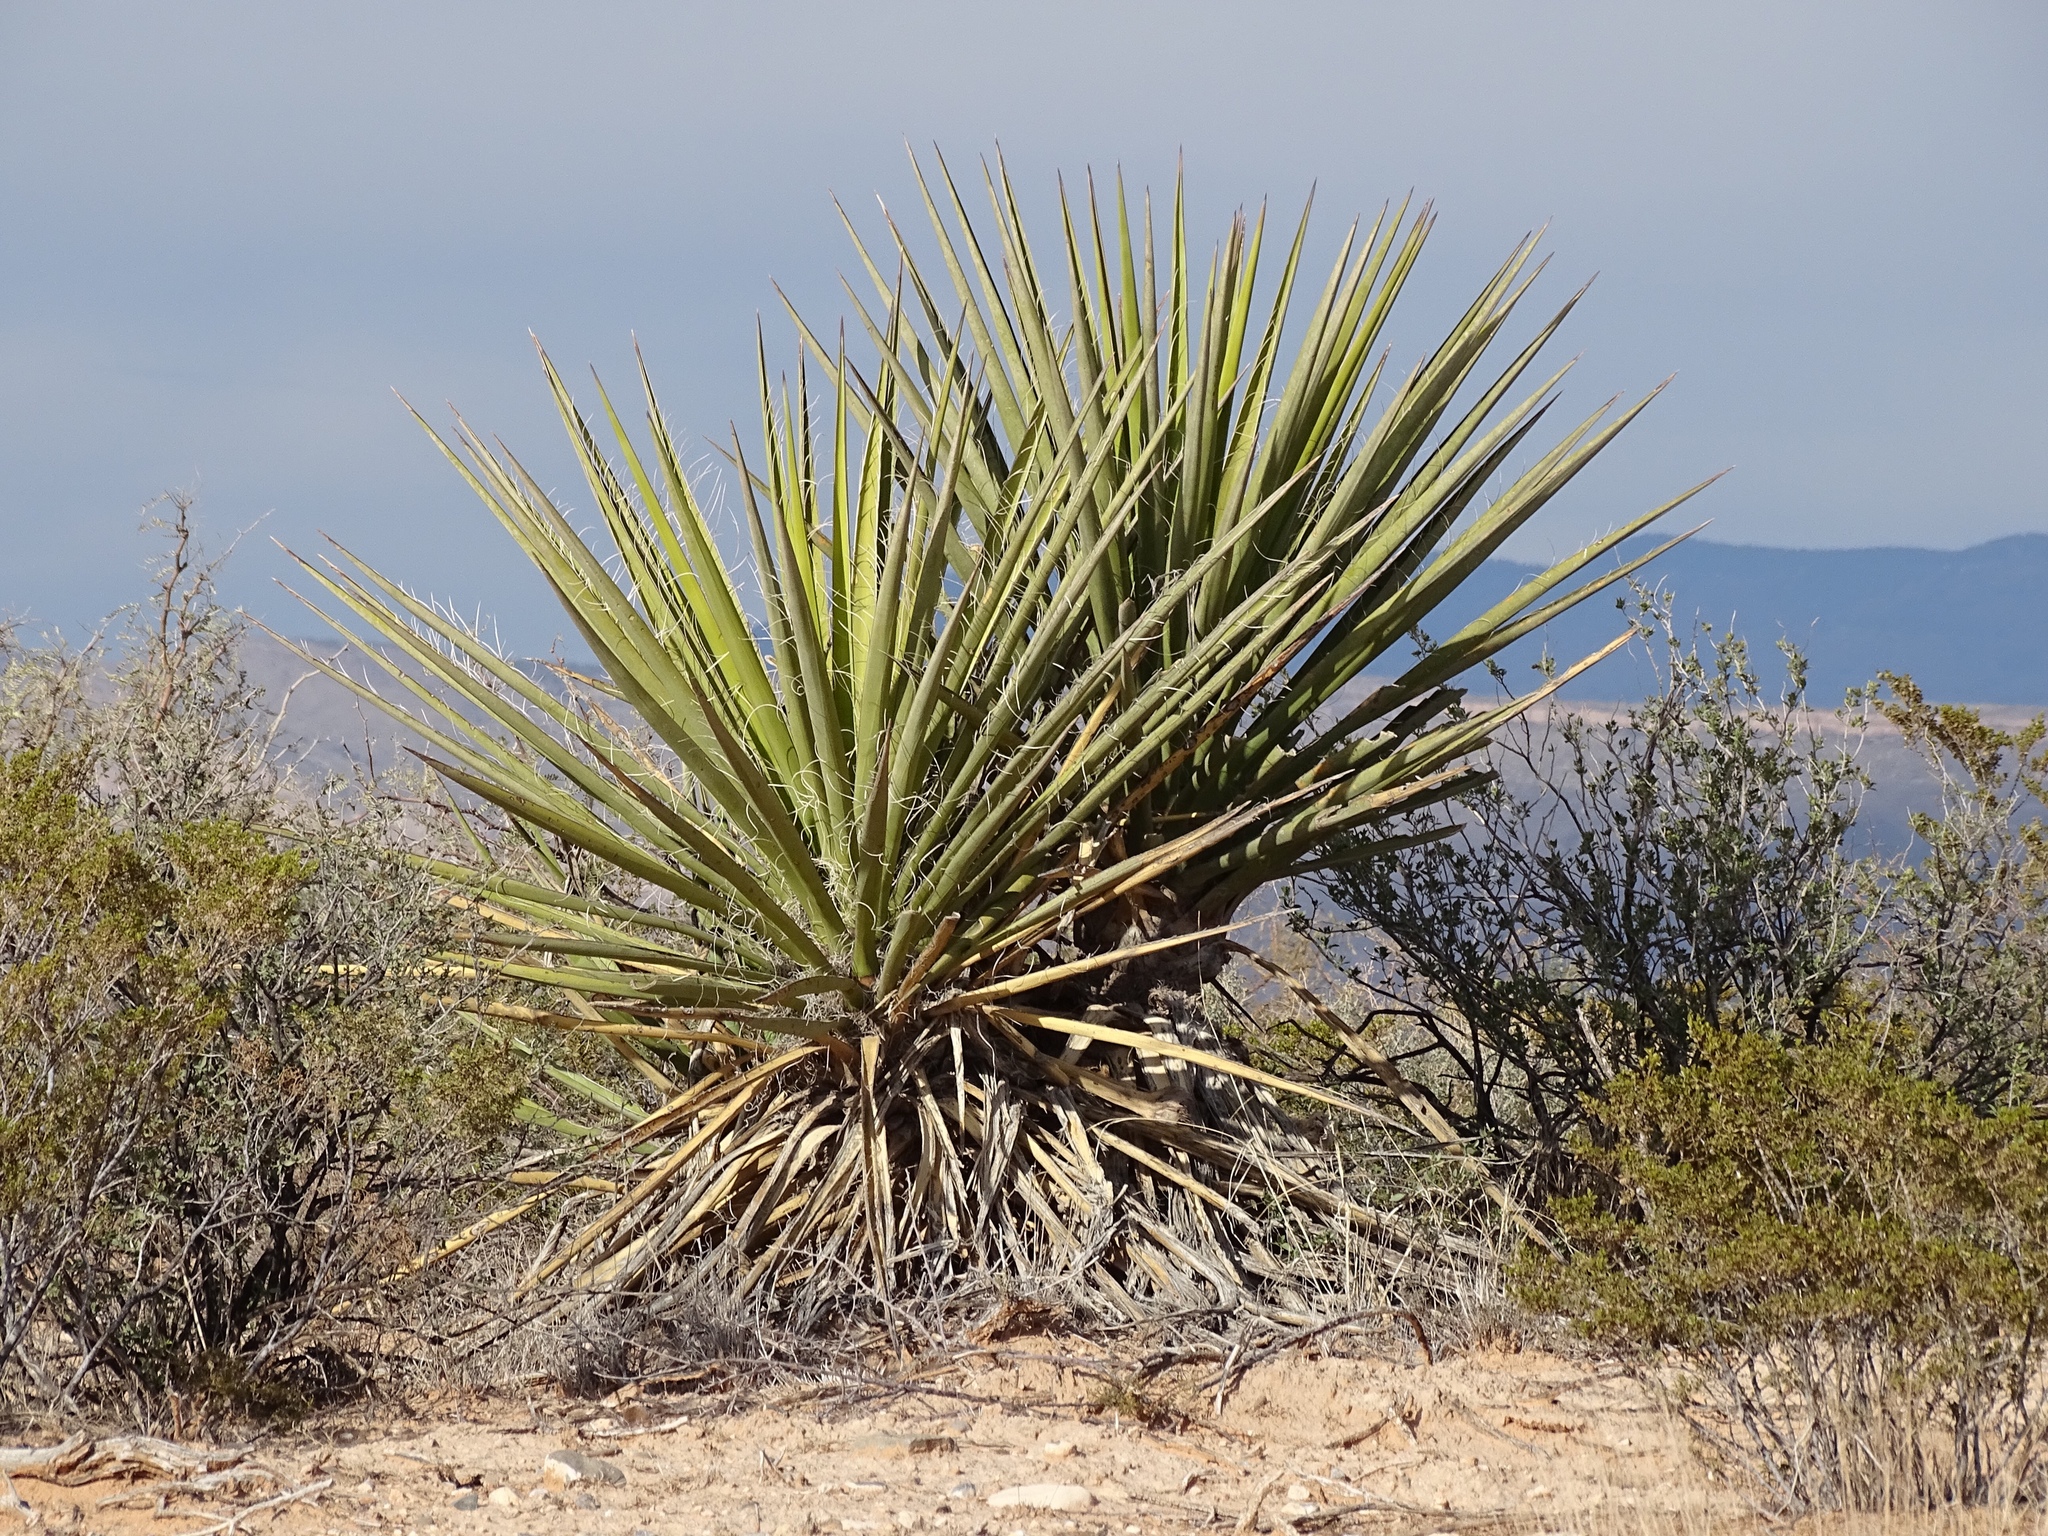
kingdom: Plantae
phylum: Tracheophyta
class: Liliopsida
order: Asparagales
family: Asparagaceae
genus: Yucca
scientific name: Yucca treculiana
